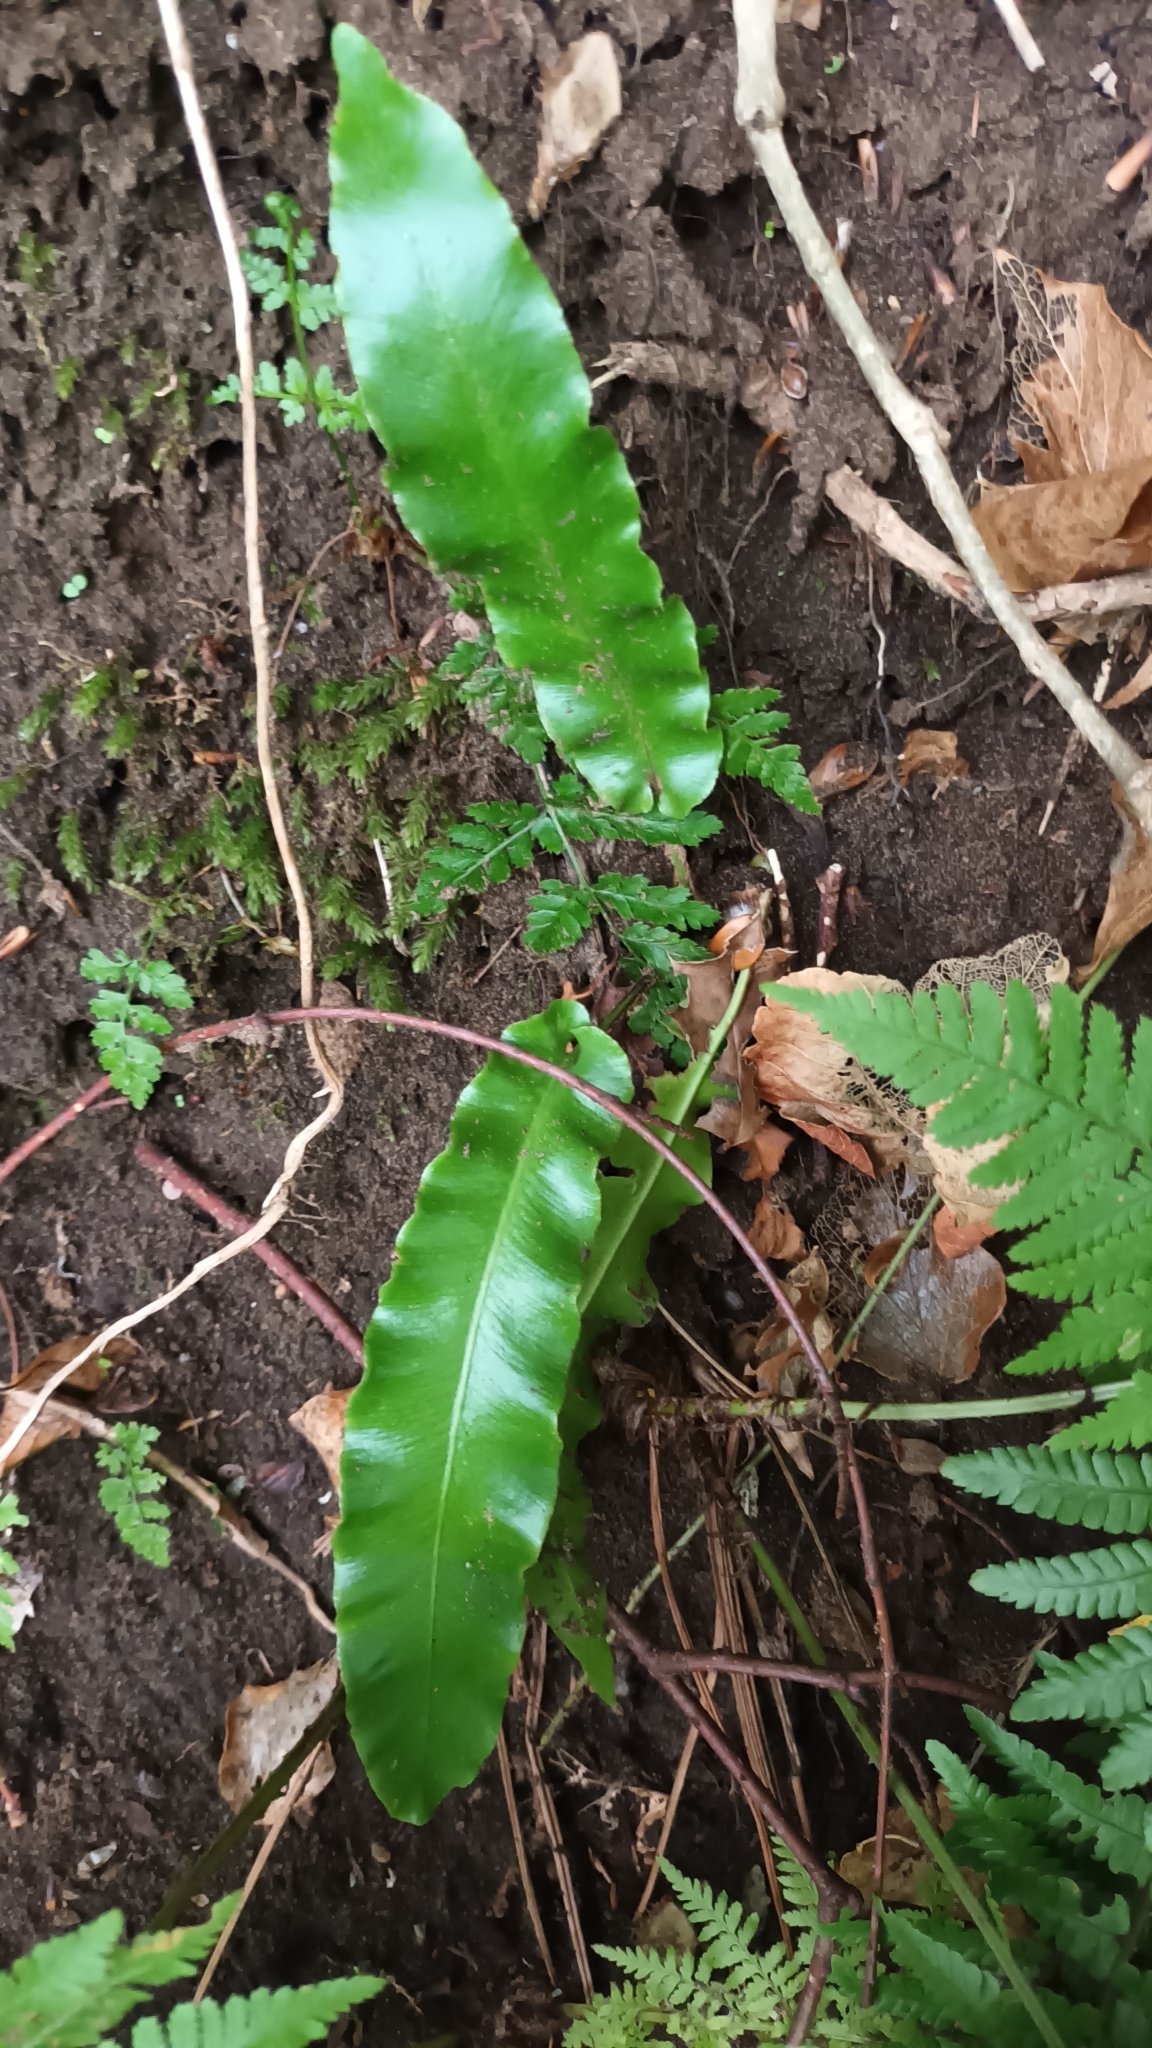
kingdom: Plantae
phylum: Tracheophyta
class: Polypodiopsida
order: Polypodiales
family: Aspleniaceae
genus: Asplenium
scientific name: Asplenium scolopendrium
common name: Hart's-tongue fern
